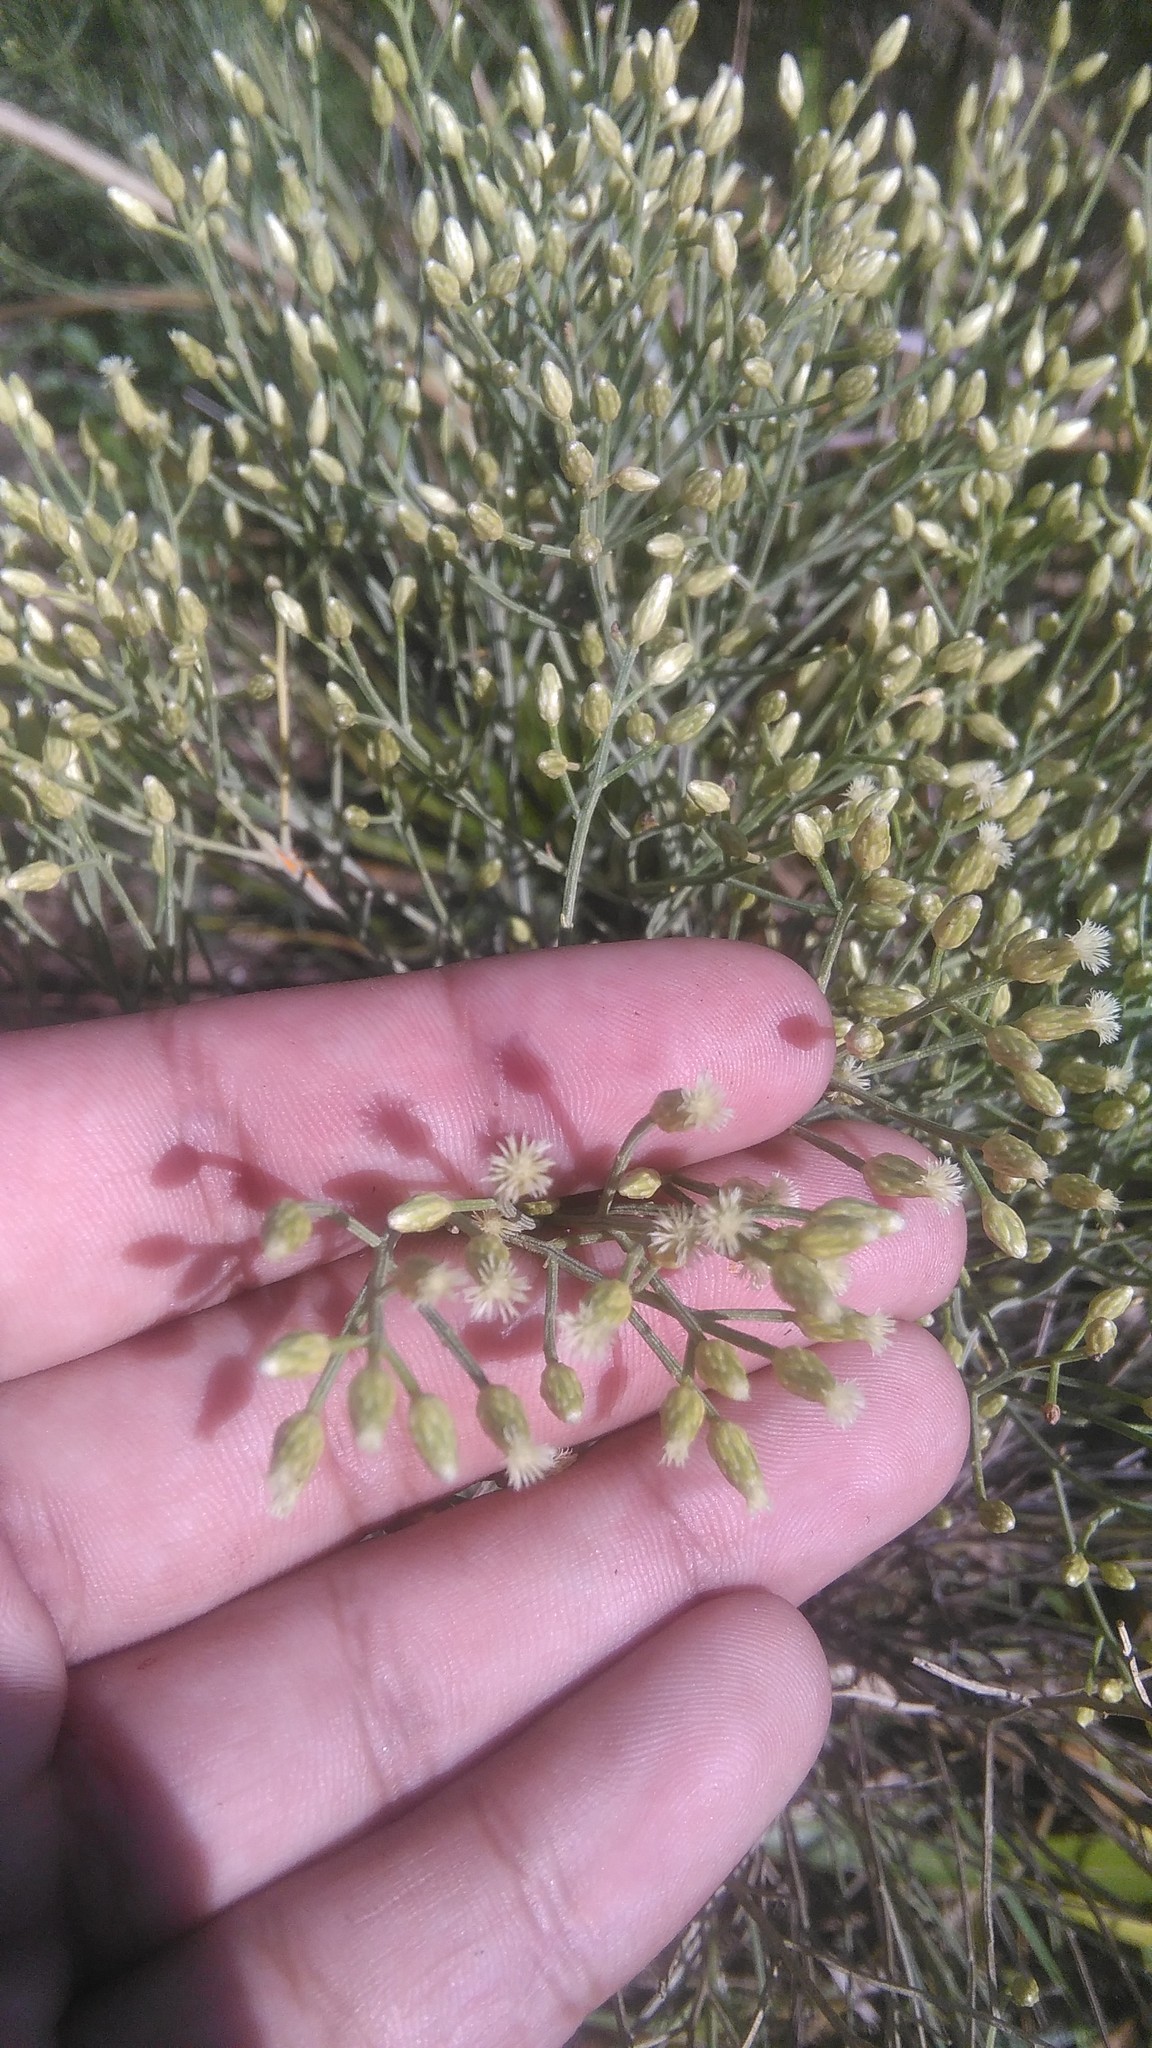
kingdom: Plantae
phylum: Tracheophyta
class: Magnoliopsida
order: Asterales
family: Asteraceae
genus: Baccharis
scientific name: Baccharis notosergila
